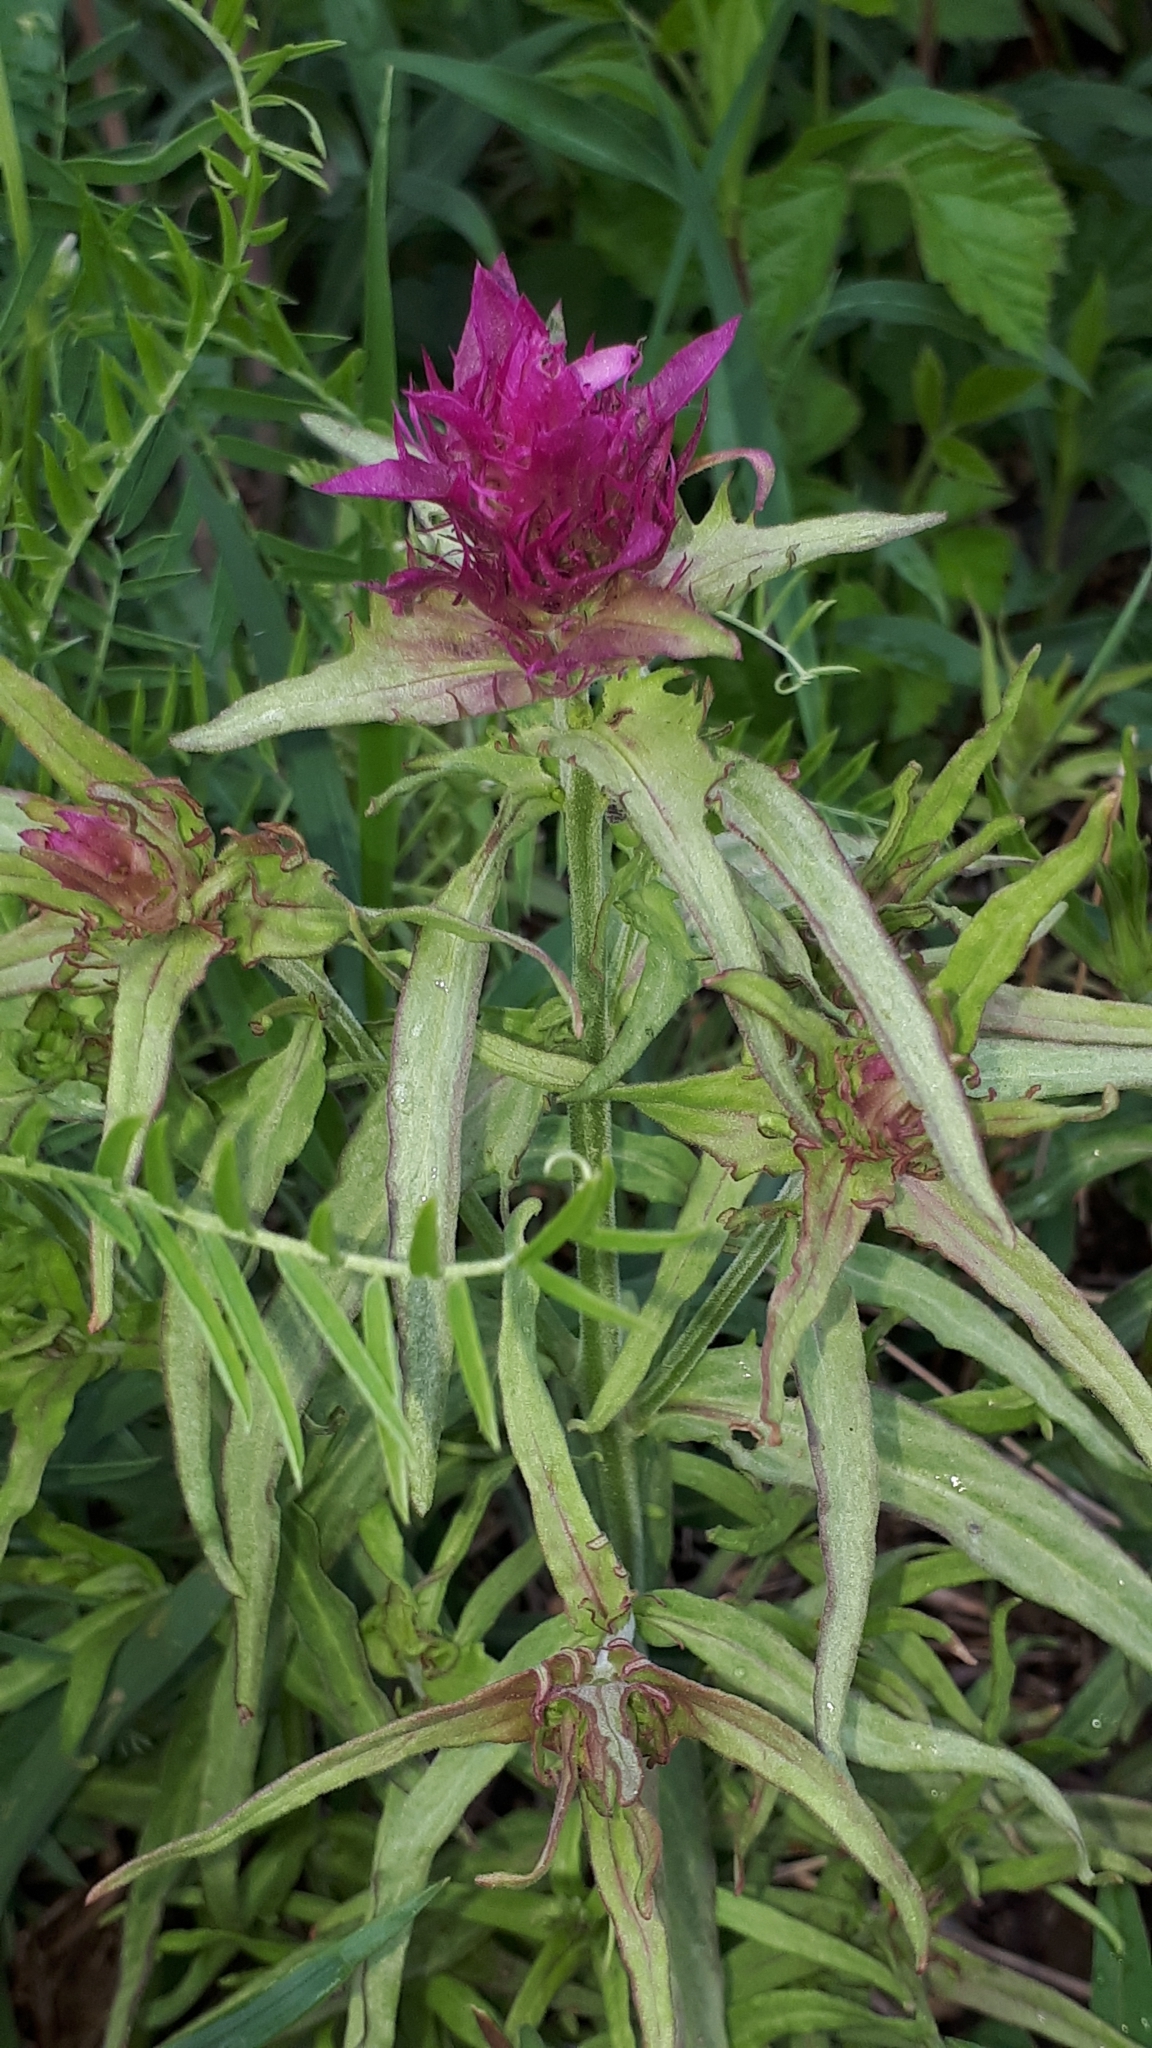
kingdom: Plantae
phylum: Tracheophyta
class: Magnoliopsida
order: Lamiales
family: Orobanchaceae
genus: Melampyrum
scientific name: Melampyrum arvense
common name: Field cow-wheat
